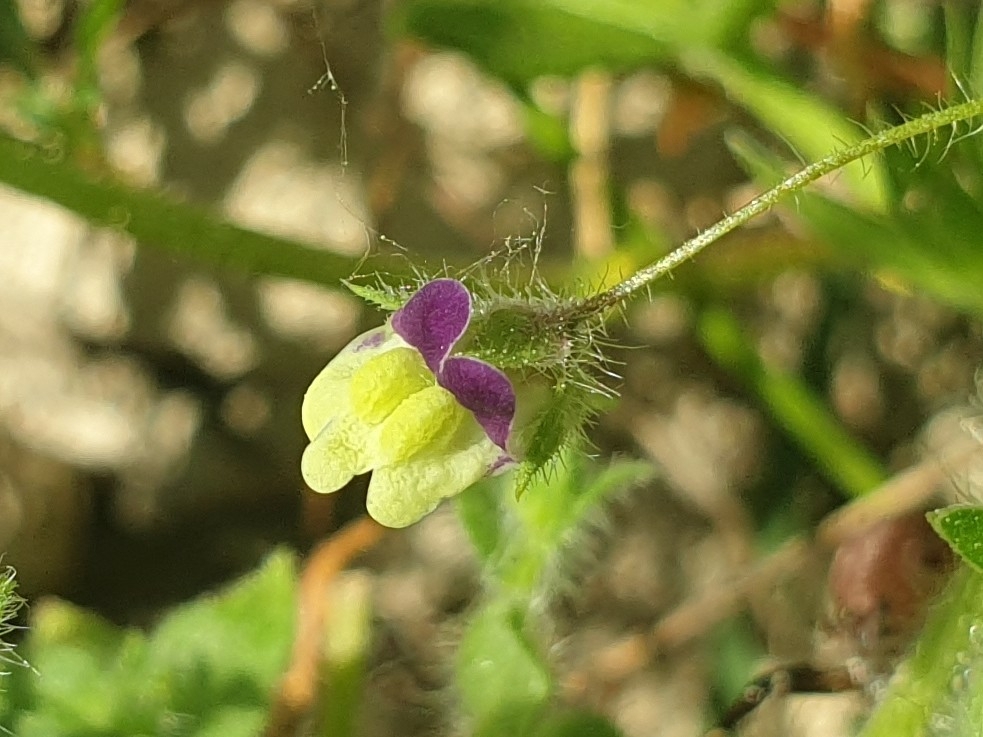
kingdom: Plantae
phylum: Tracheophyta
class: Magnoliopsida
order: Lamiales
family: Plantaginaceae
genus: Kickxia
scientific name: Kickxia elatine
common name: Sharp-leaved fluellen
